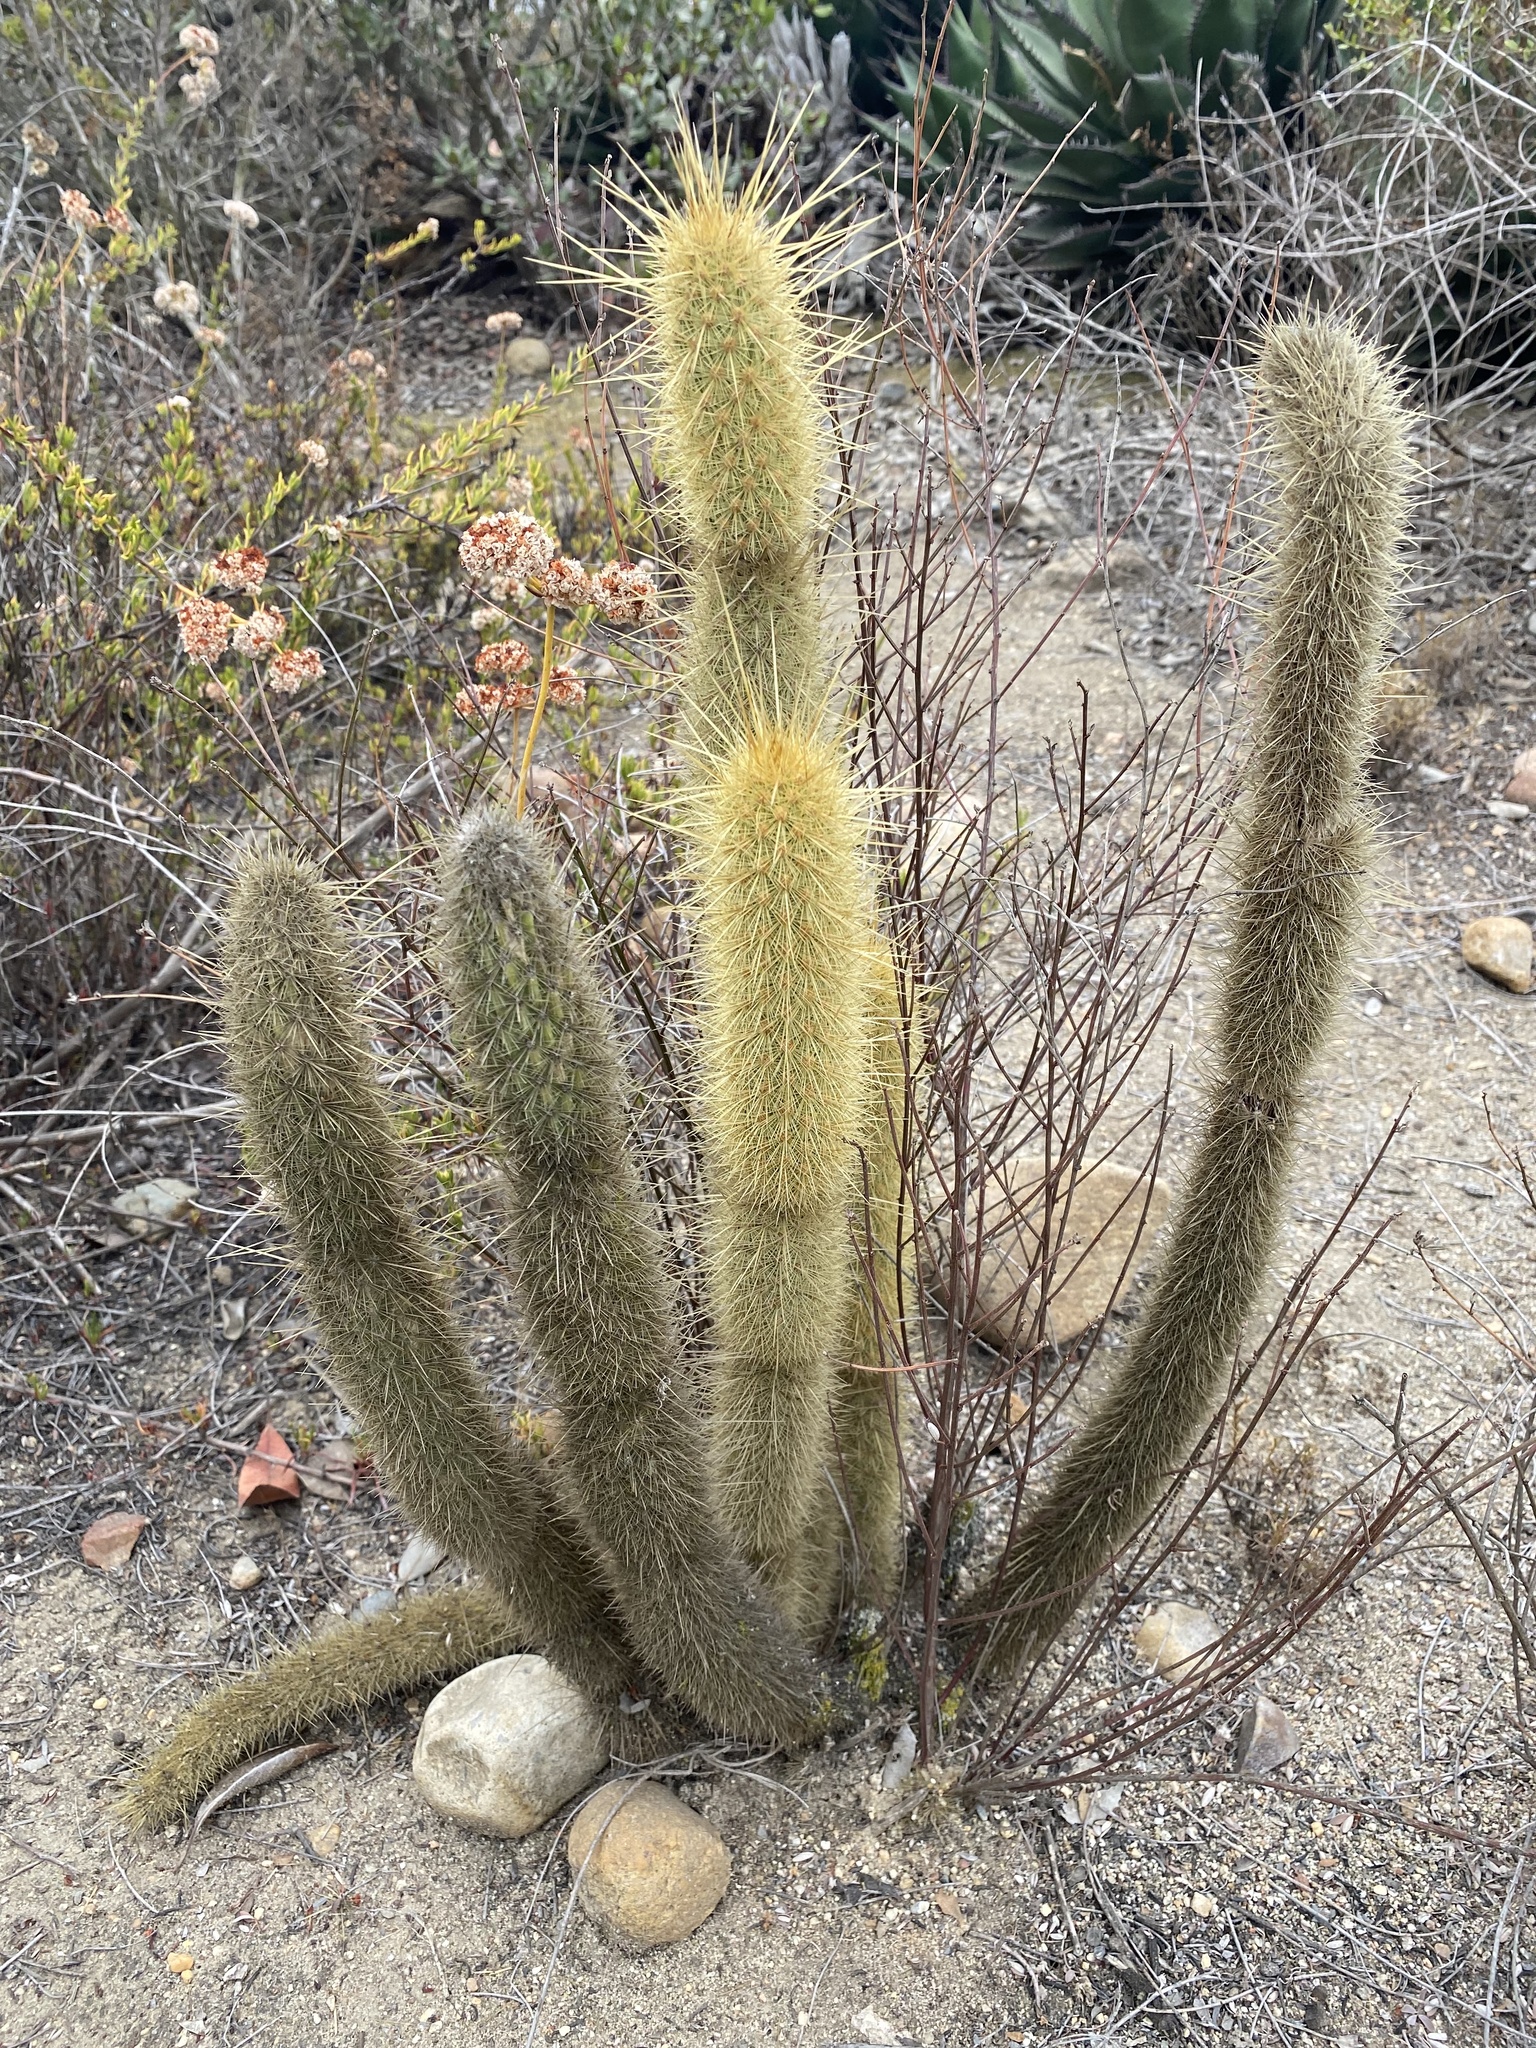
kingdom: Plantae
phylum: Tracheophyta
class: Magnoliopsida
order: Caryophyllales
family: Cactaceae
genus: Bergerocactus
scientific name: Bergerocactus emoryi
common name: Golden snakecactus
